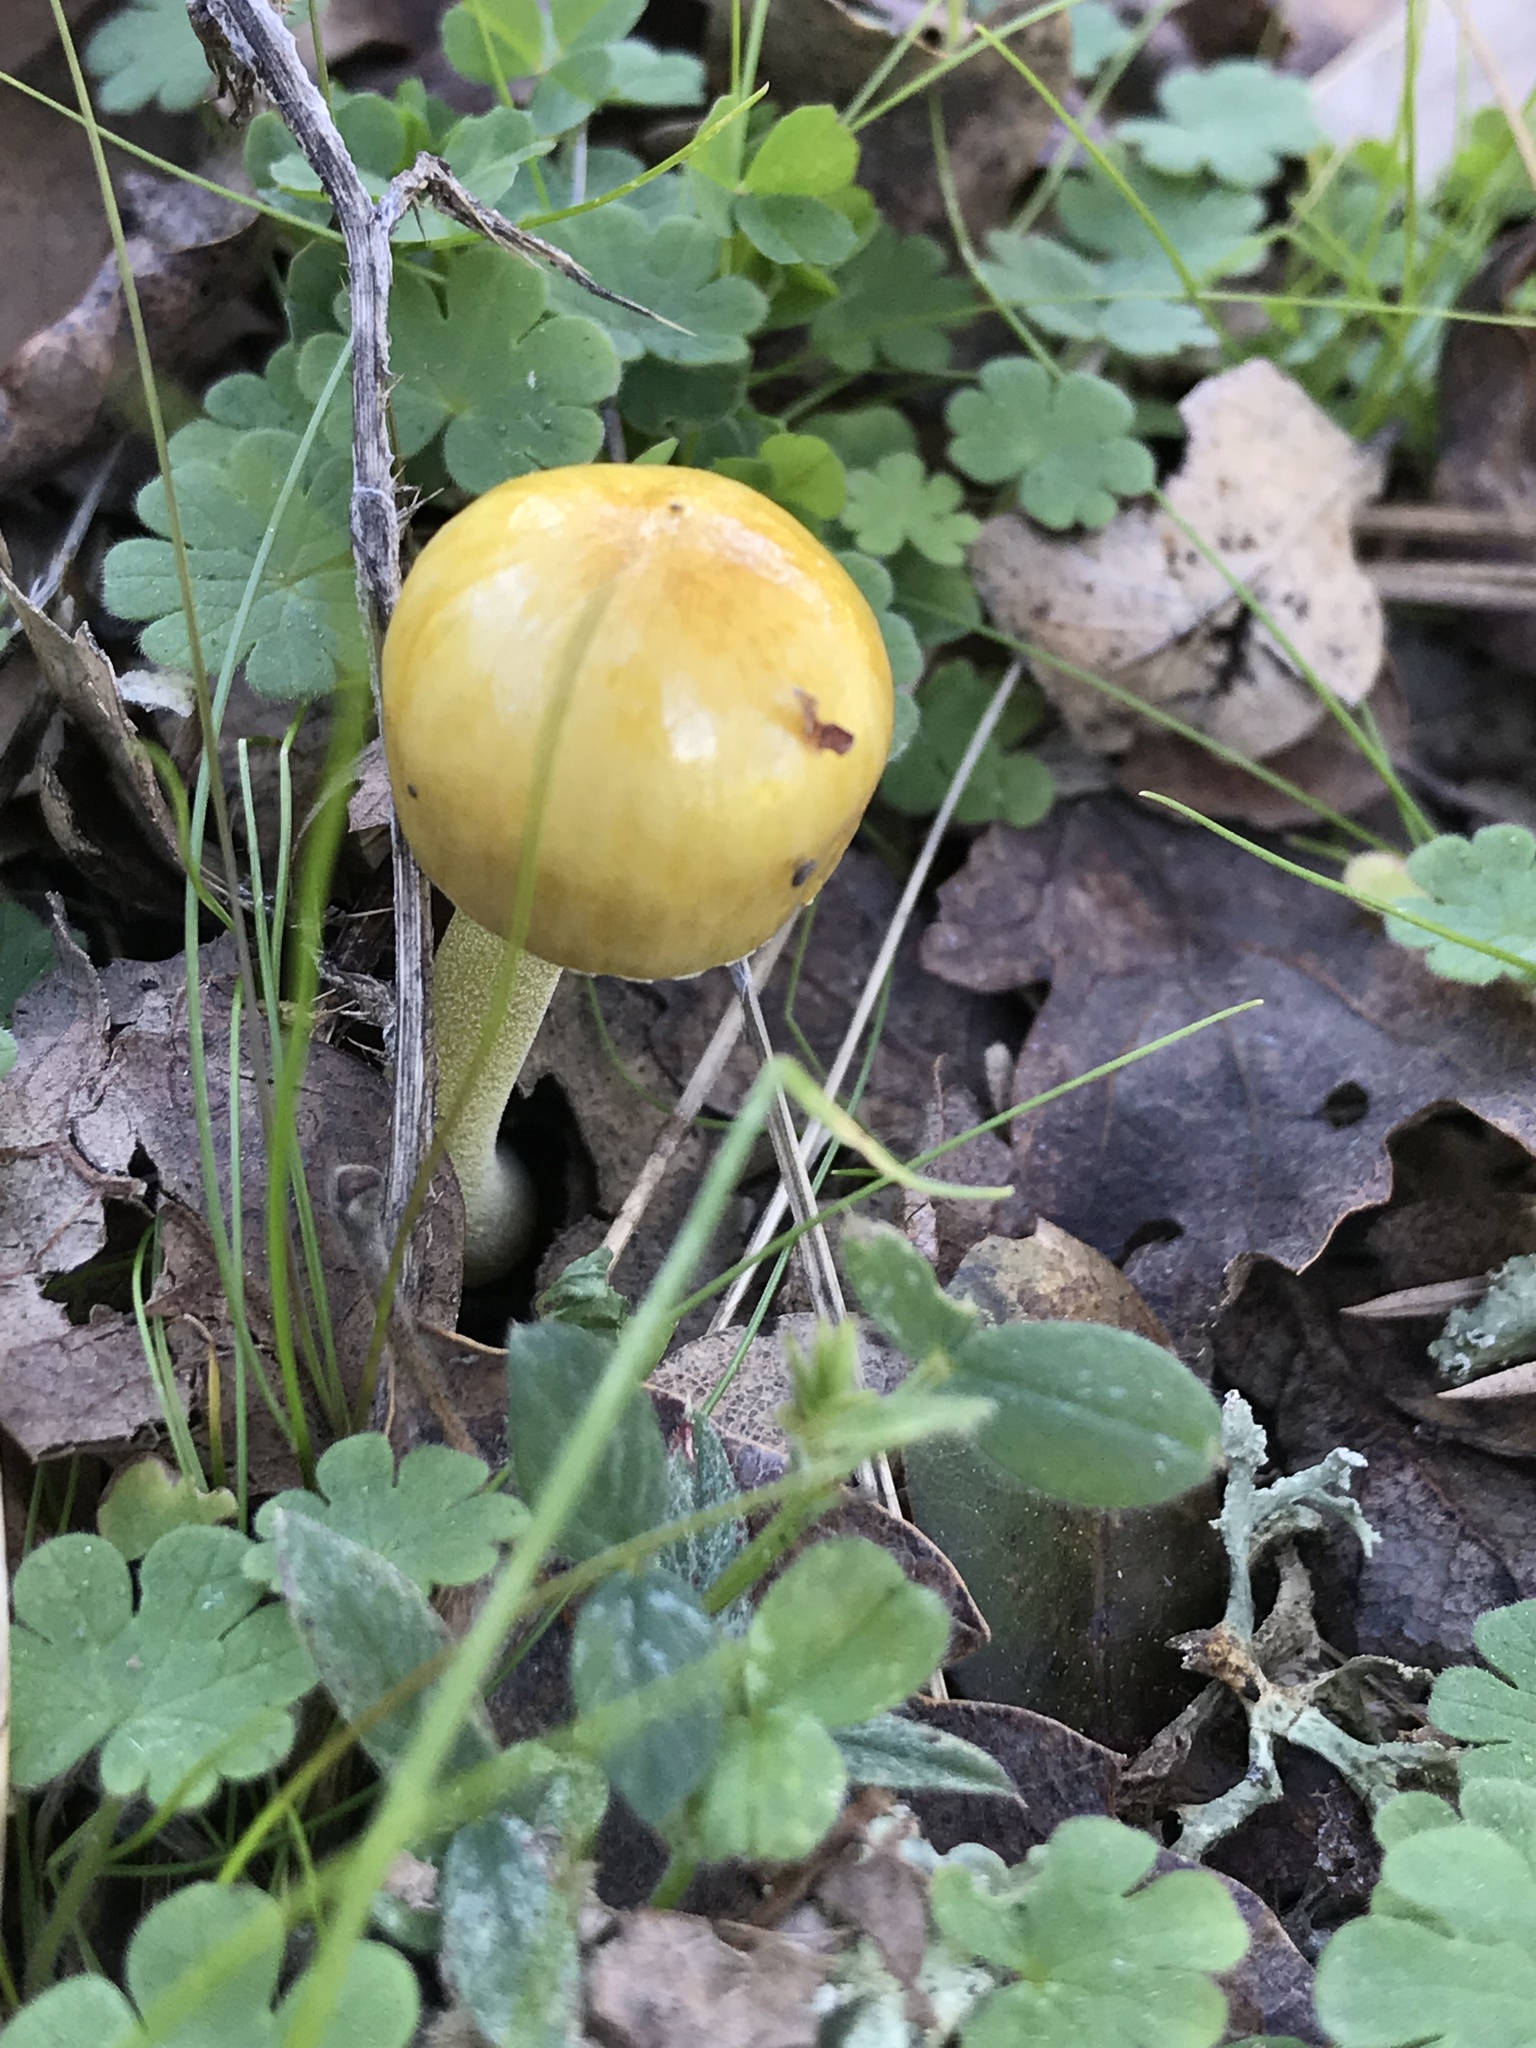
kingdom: Fungi
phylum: Basidiomycota
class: Agaricomycetes
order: Agaricales
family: Bolbitiaceae
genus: Bolbitius
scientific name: Bolbitius titubans
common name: Yellow fieldcap
